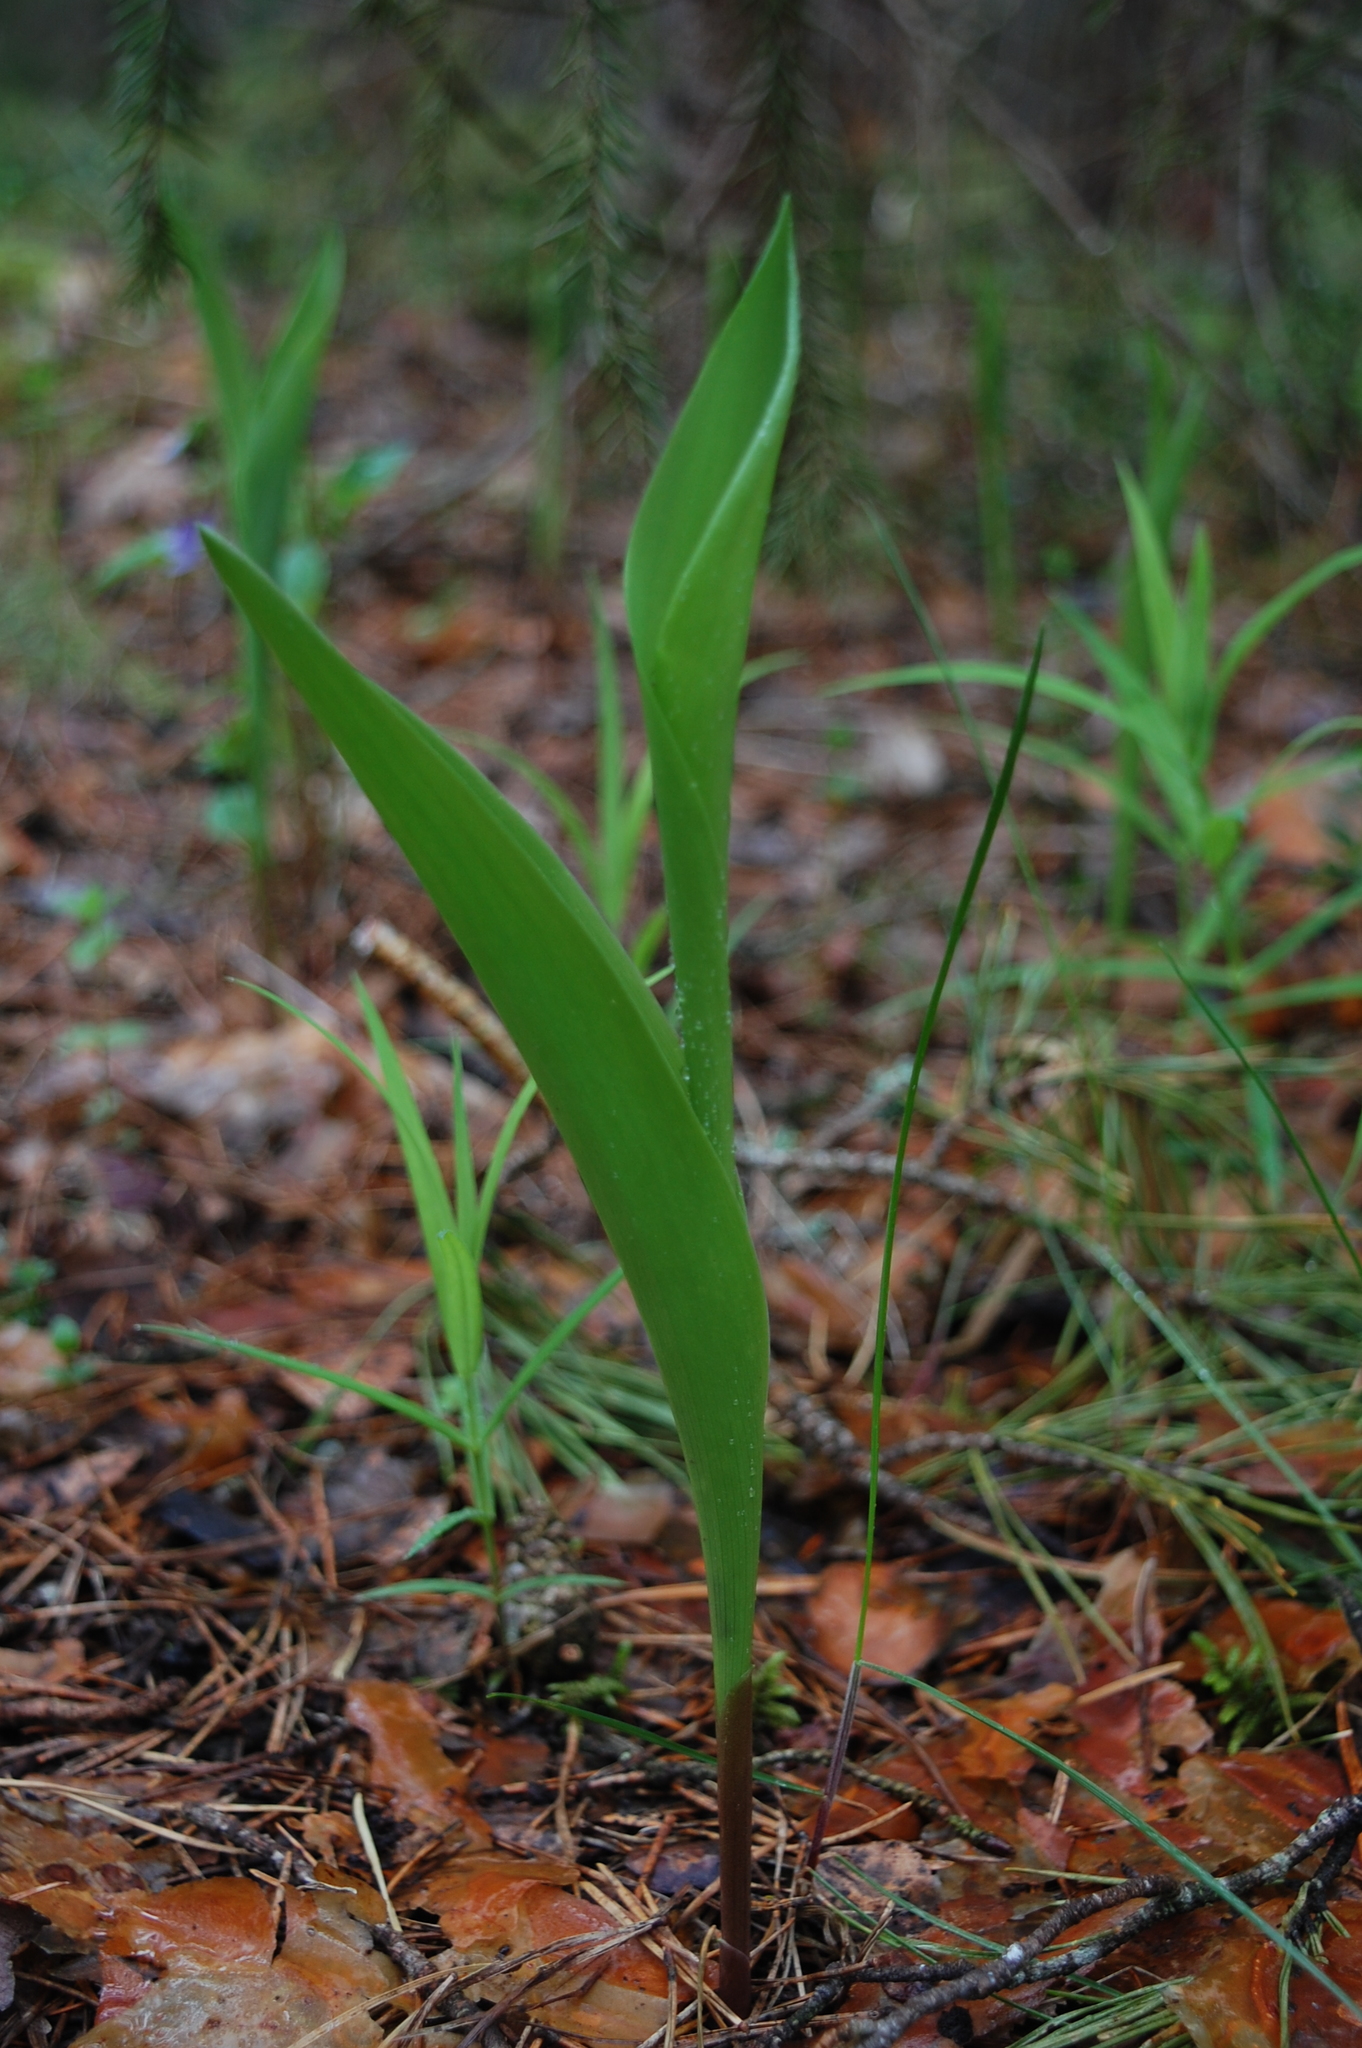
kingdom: Plantae
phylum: Tracheophyta
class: Liliopsida
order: Asparagales
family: Asparagaceae
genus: Convallaria
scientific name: Convallaria majalis
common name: Lily-of-the-valley
